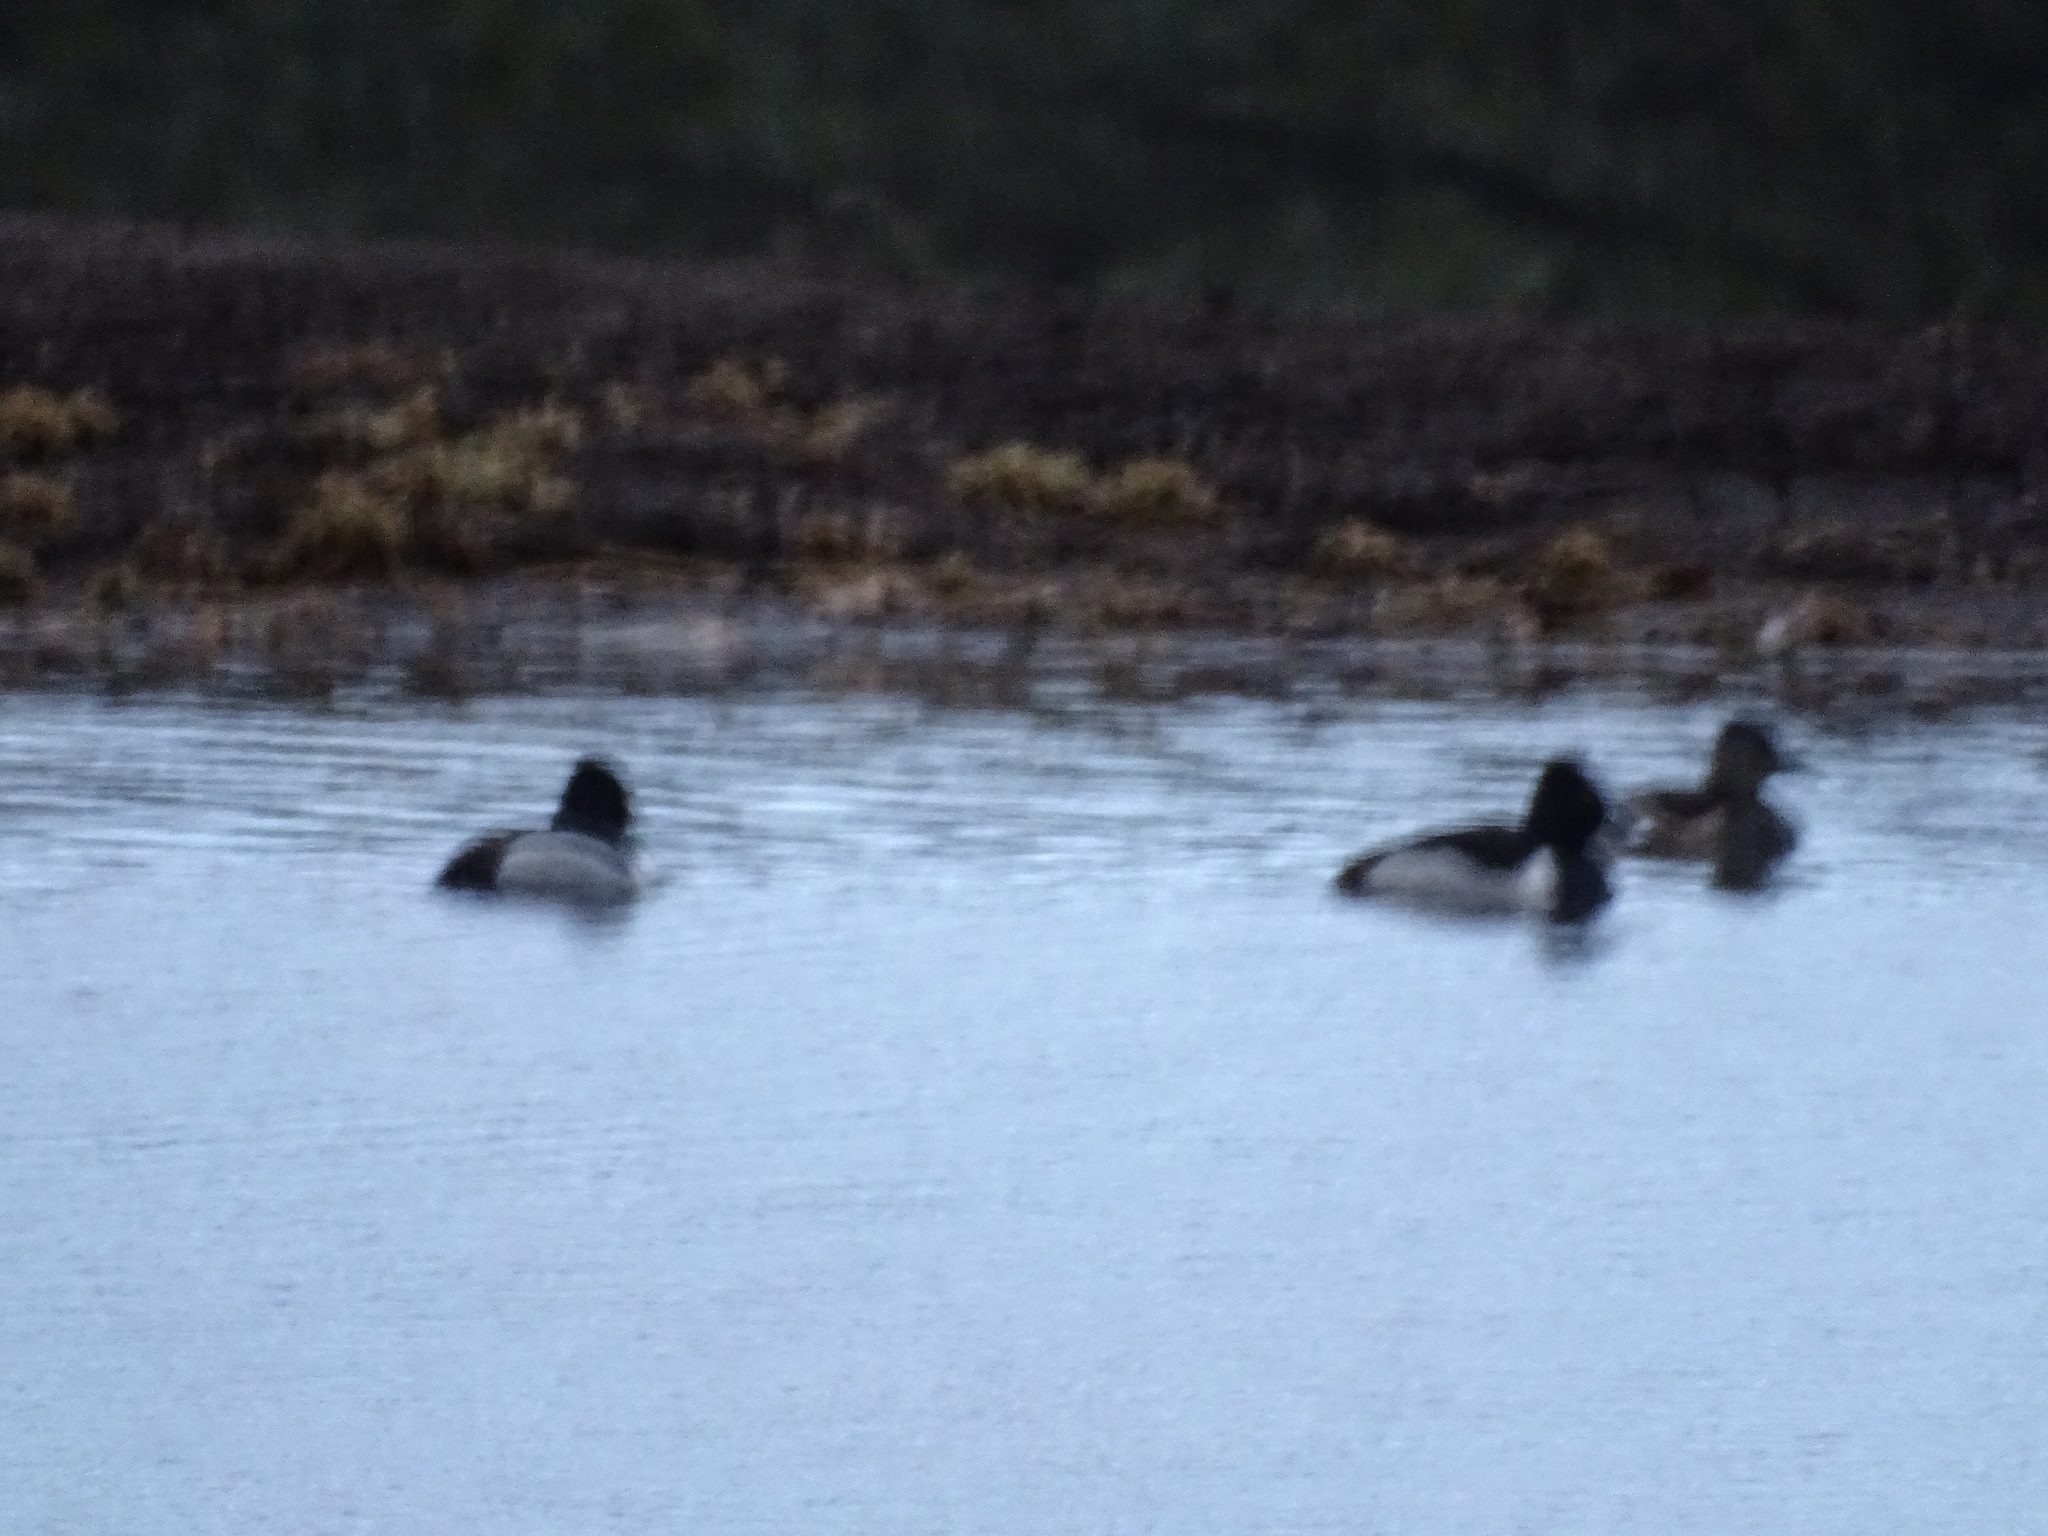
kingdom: Animalia
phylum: Chordata
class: Aves
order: Anseriformes
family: Anatidae
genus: Aythya
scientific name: Aythya collaris
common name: Ring-necked duck
